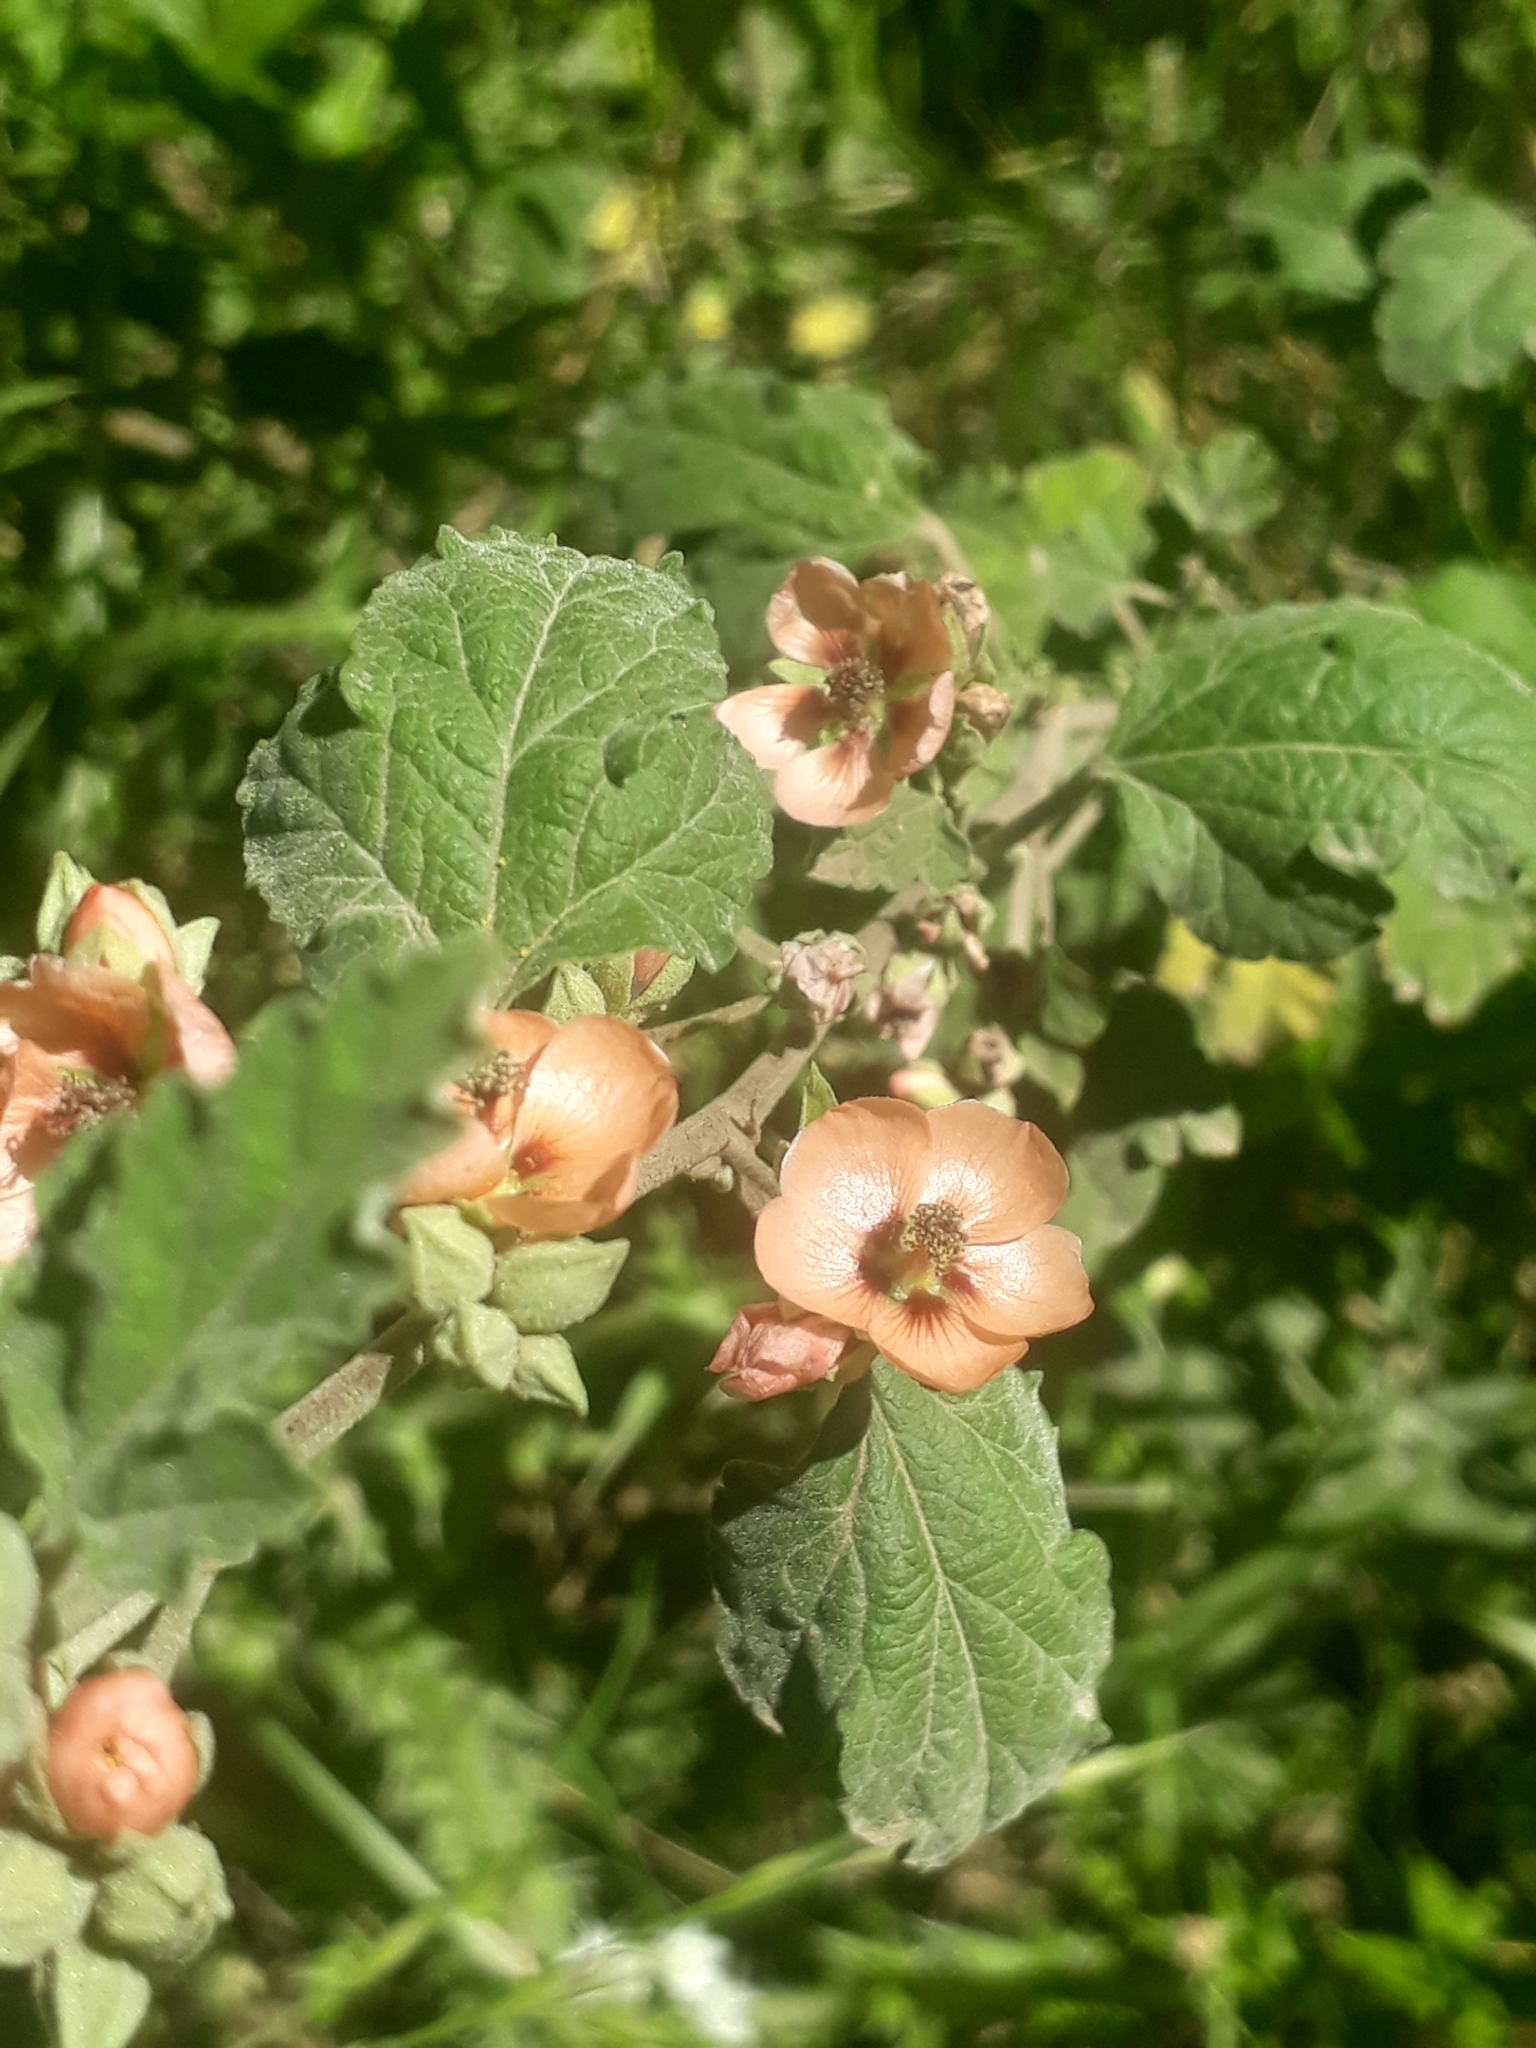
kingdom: Plantae
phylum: Tracheophyta
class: Magnoliopsida
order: Malvales
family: Malvaceae
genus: Sphaeralcea
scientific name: Sphaeralcea bonariensis
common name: Latin globemallow
